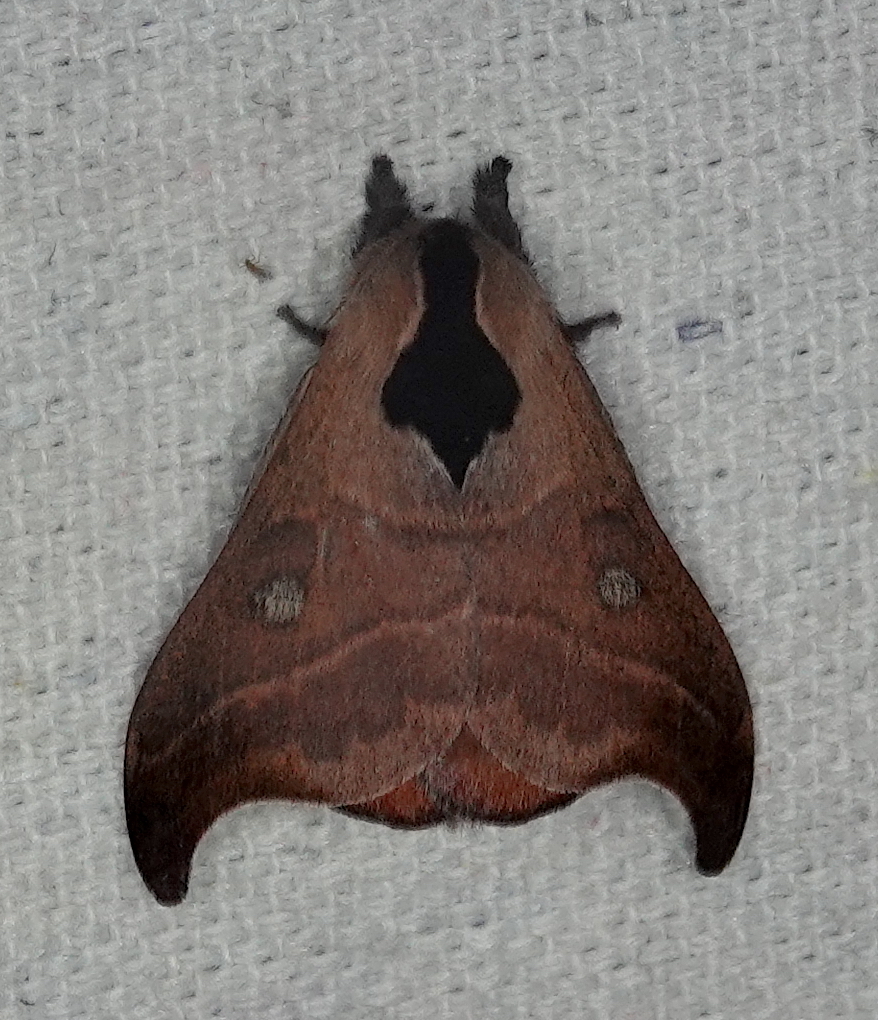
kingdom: Animalia
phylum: Arthropoda
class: Insecta
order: Lepidoptera
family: Saturniidae
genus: Hylesia
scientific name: Hylesia nanus
